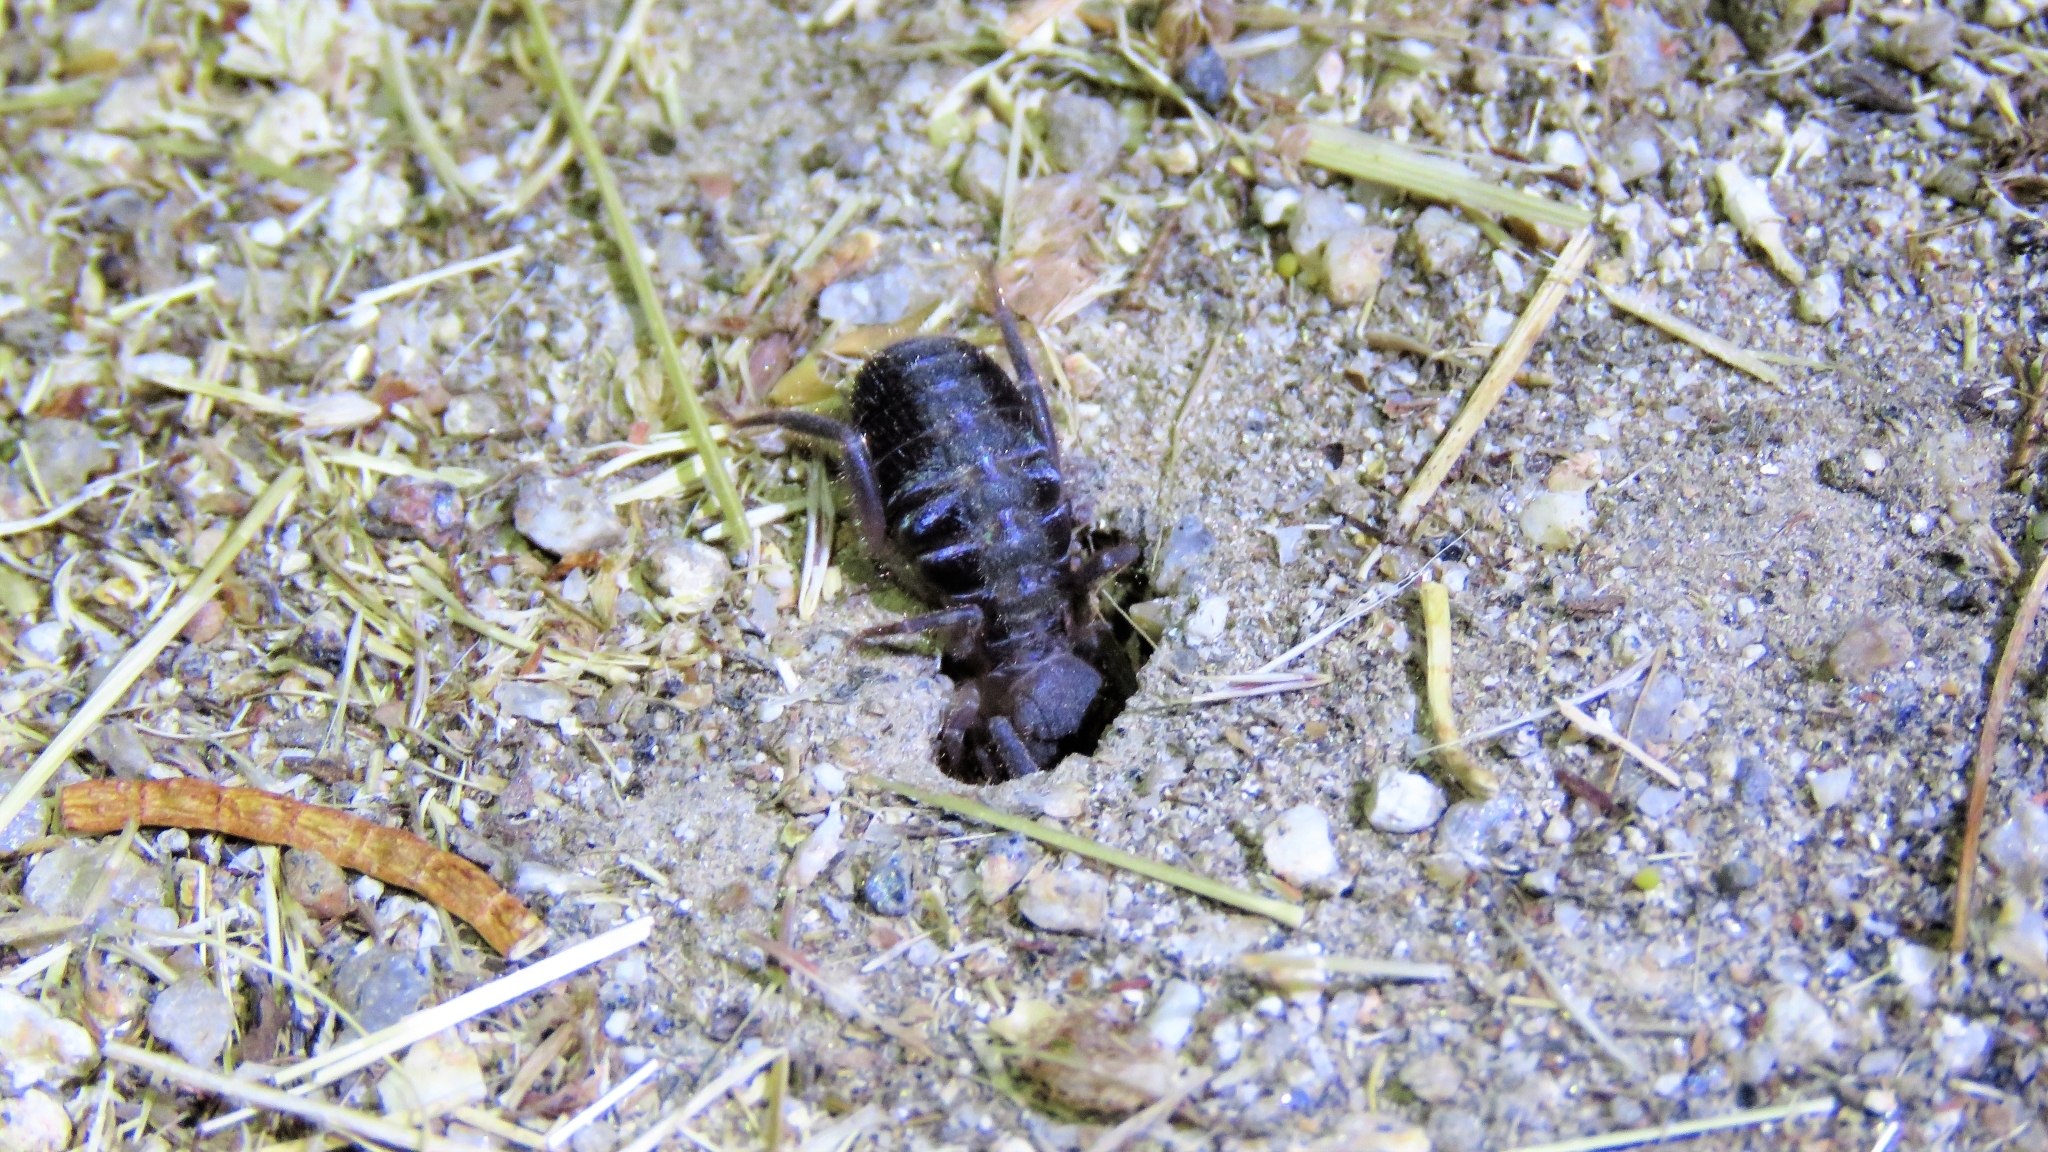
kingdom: Animalia
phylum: Arthropoda
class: Arachnida
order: Solifugae
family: Daesiidae
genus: Gluvia
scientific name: Gluvia dorsalis
